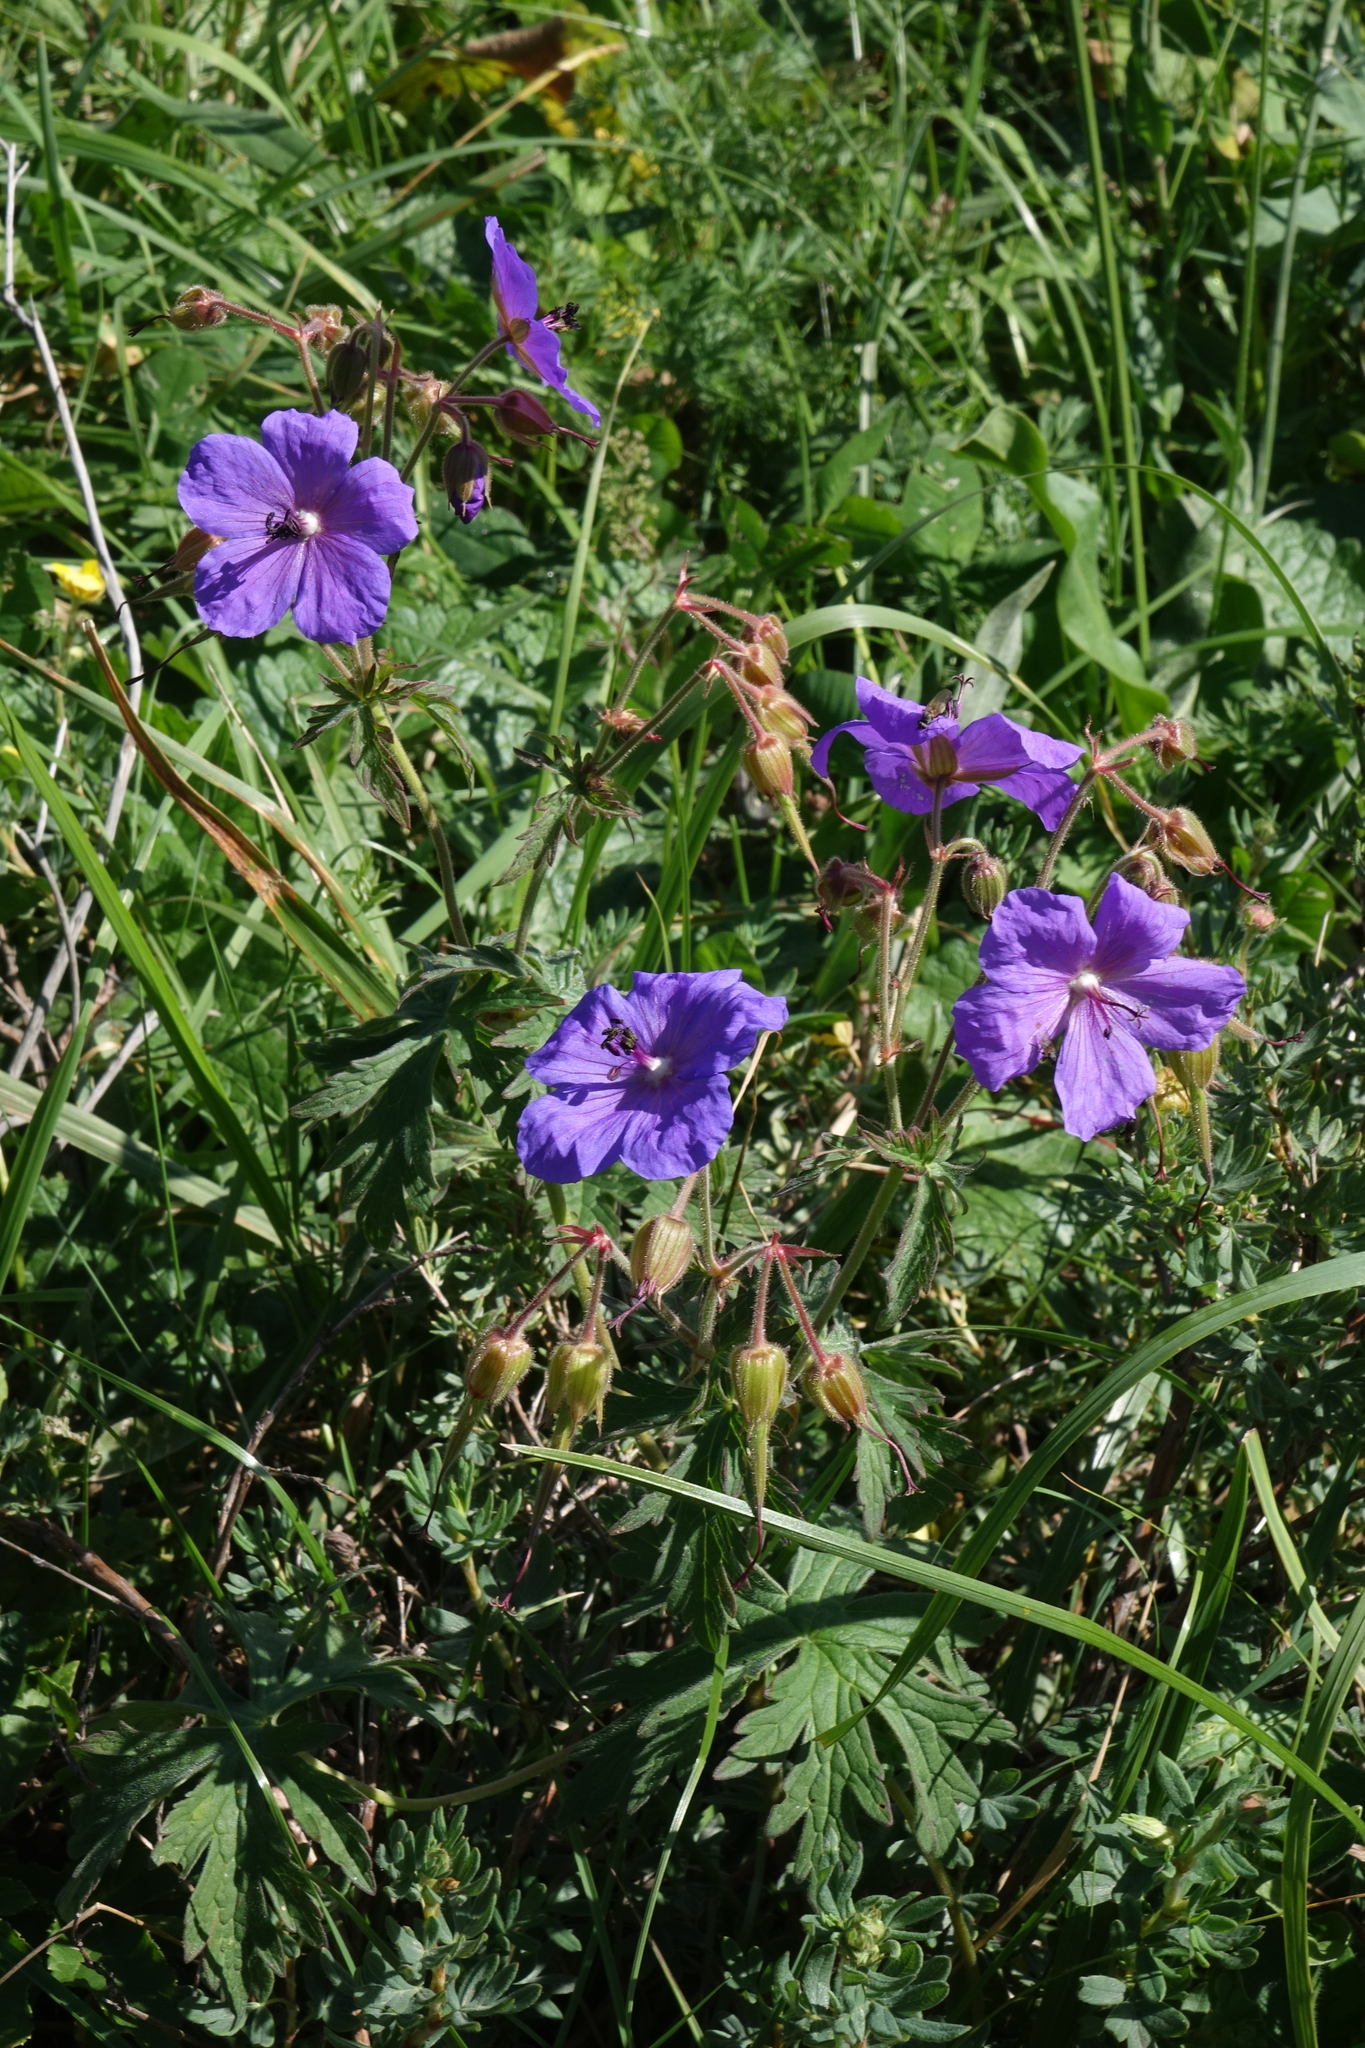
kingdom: Plantae
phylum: Tracheophyta
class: Magnoliopsida
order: Geraniales
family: Geraniaceae
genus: Geranium
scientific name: Geranium ruprechtii
